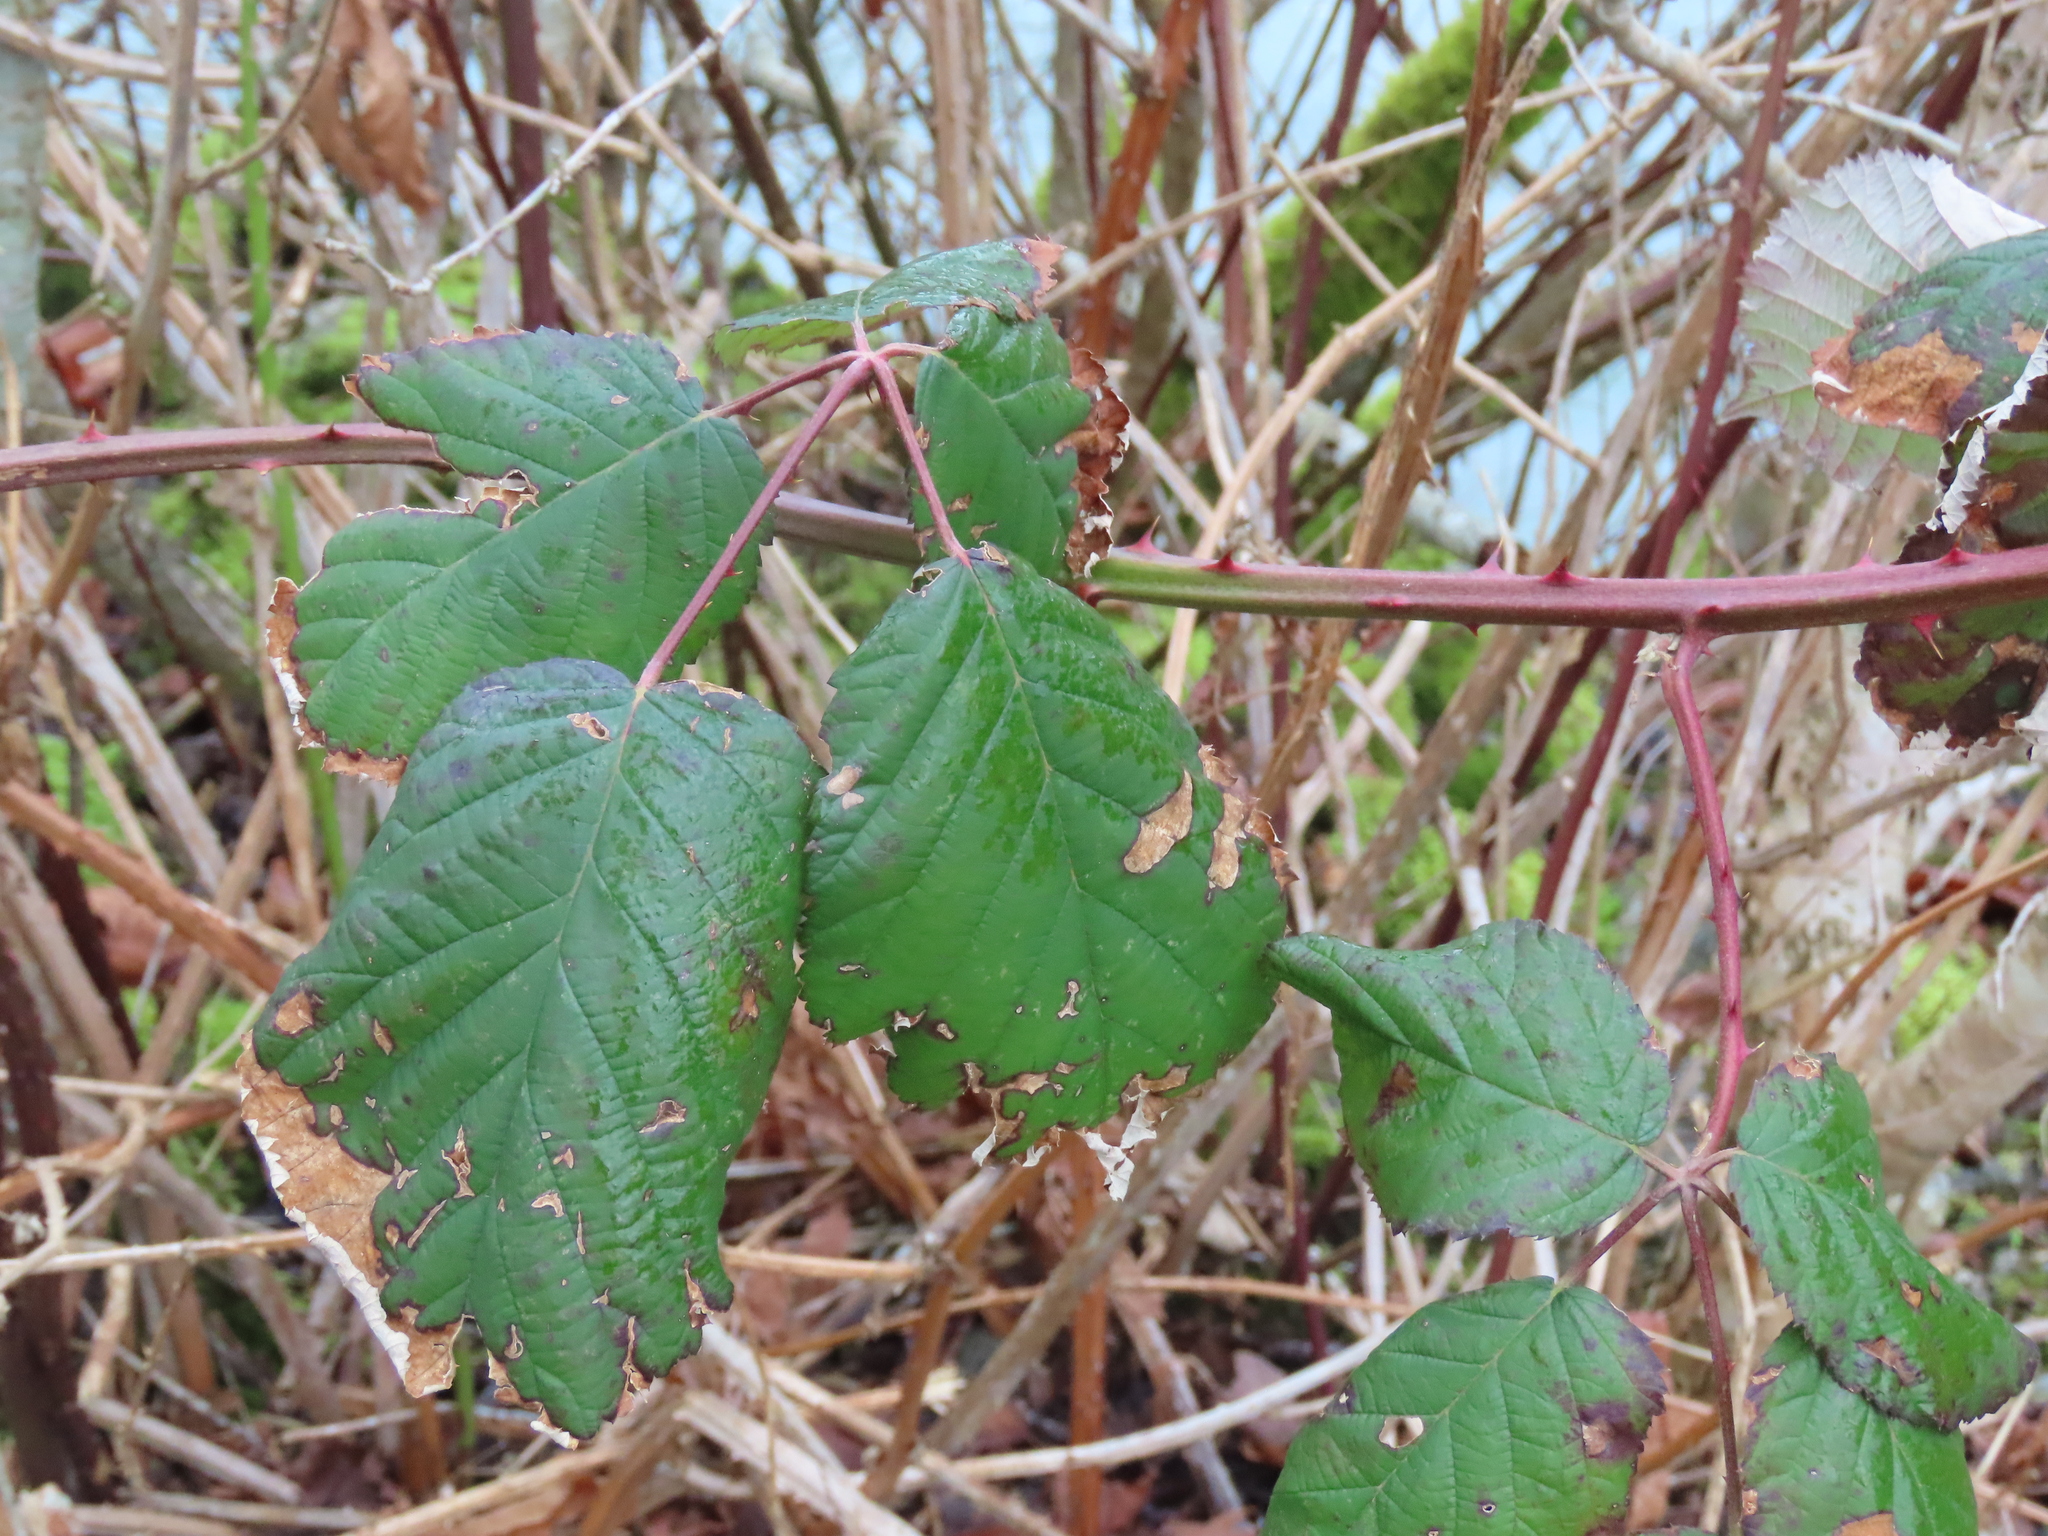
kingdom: Plantae
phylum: Tracheophyta
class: Magnoliopsida
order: Rosales
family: Rosaceae
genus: Rubus
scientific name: Rubus bifrons
